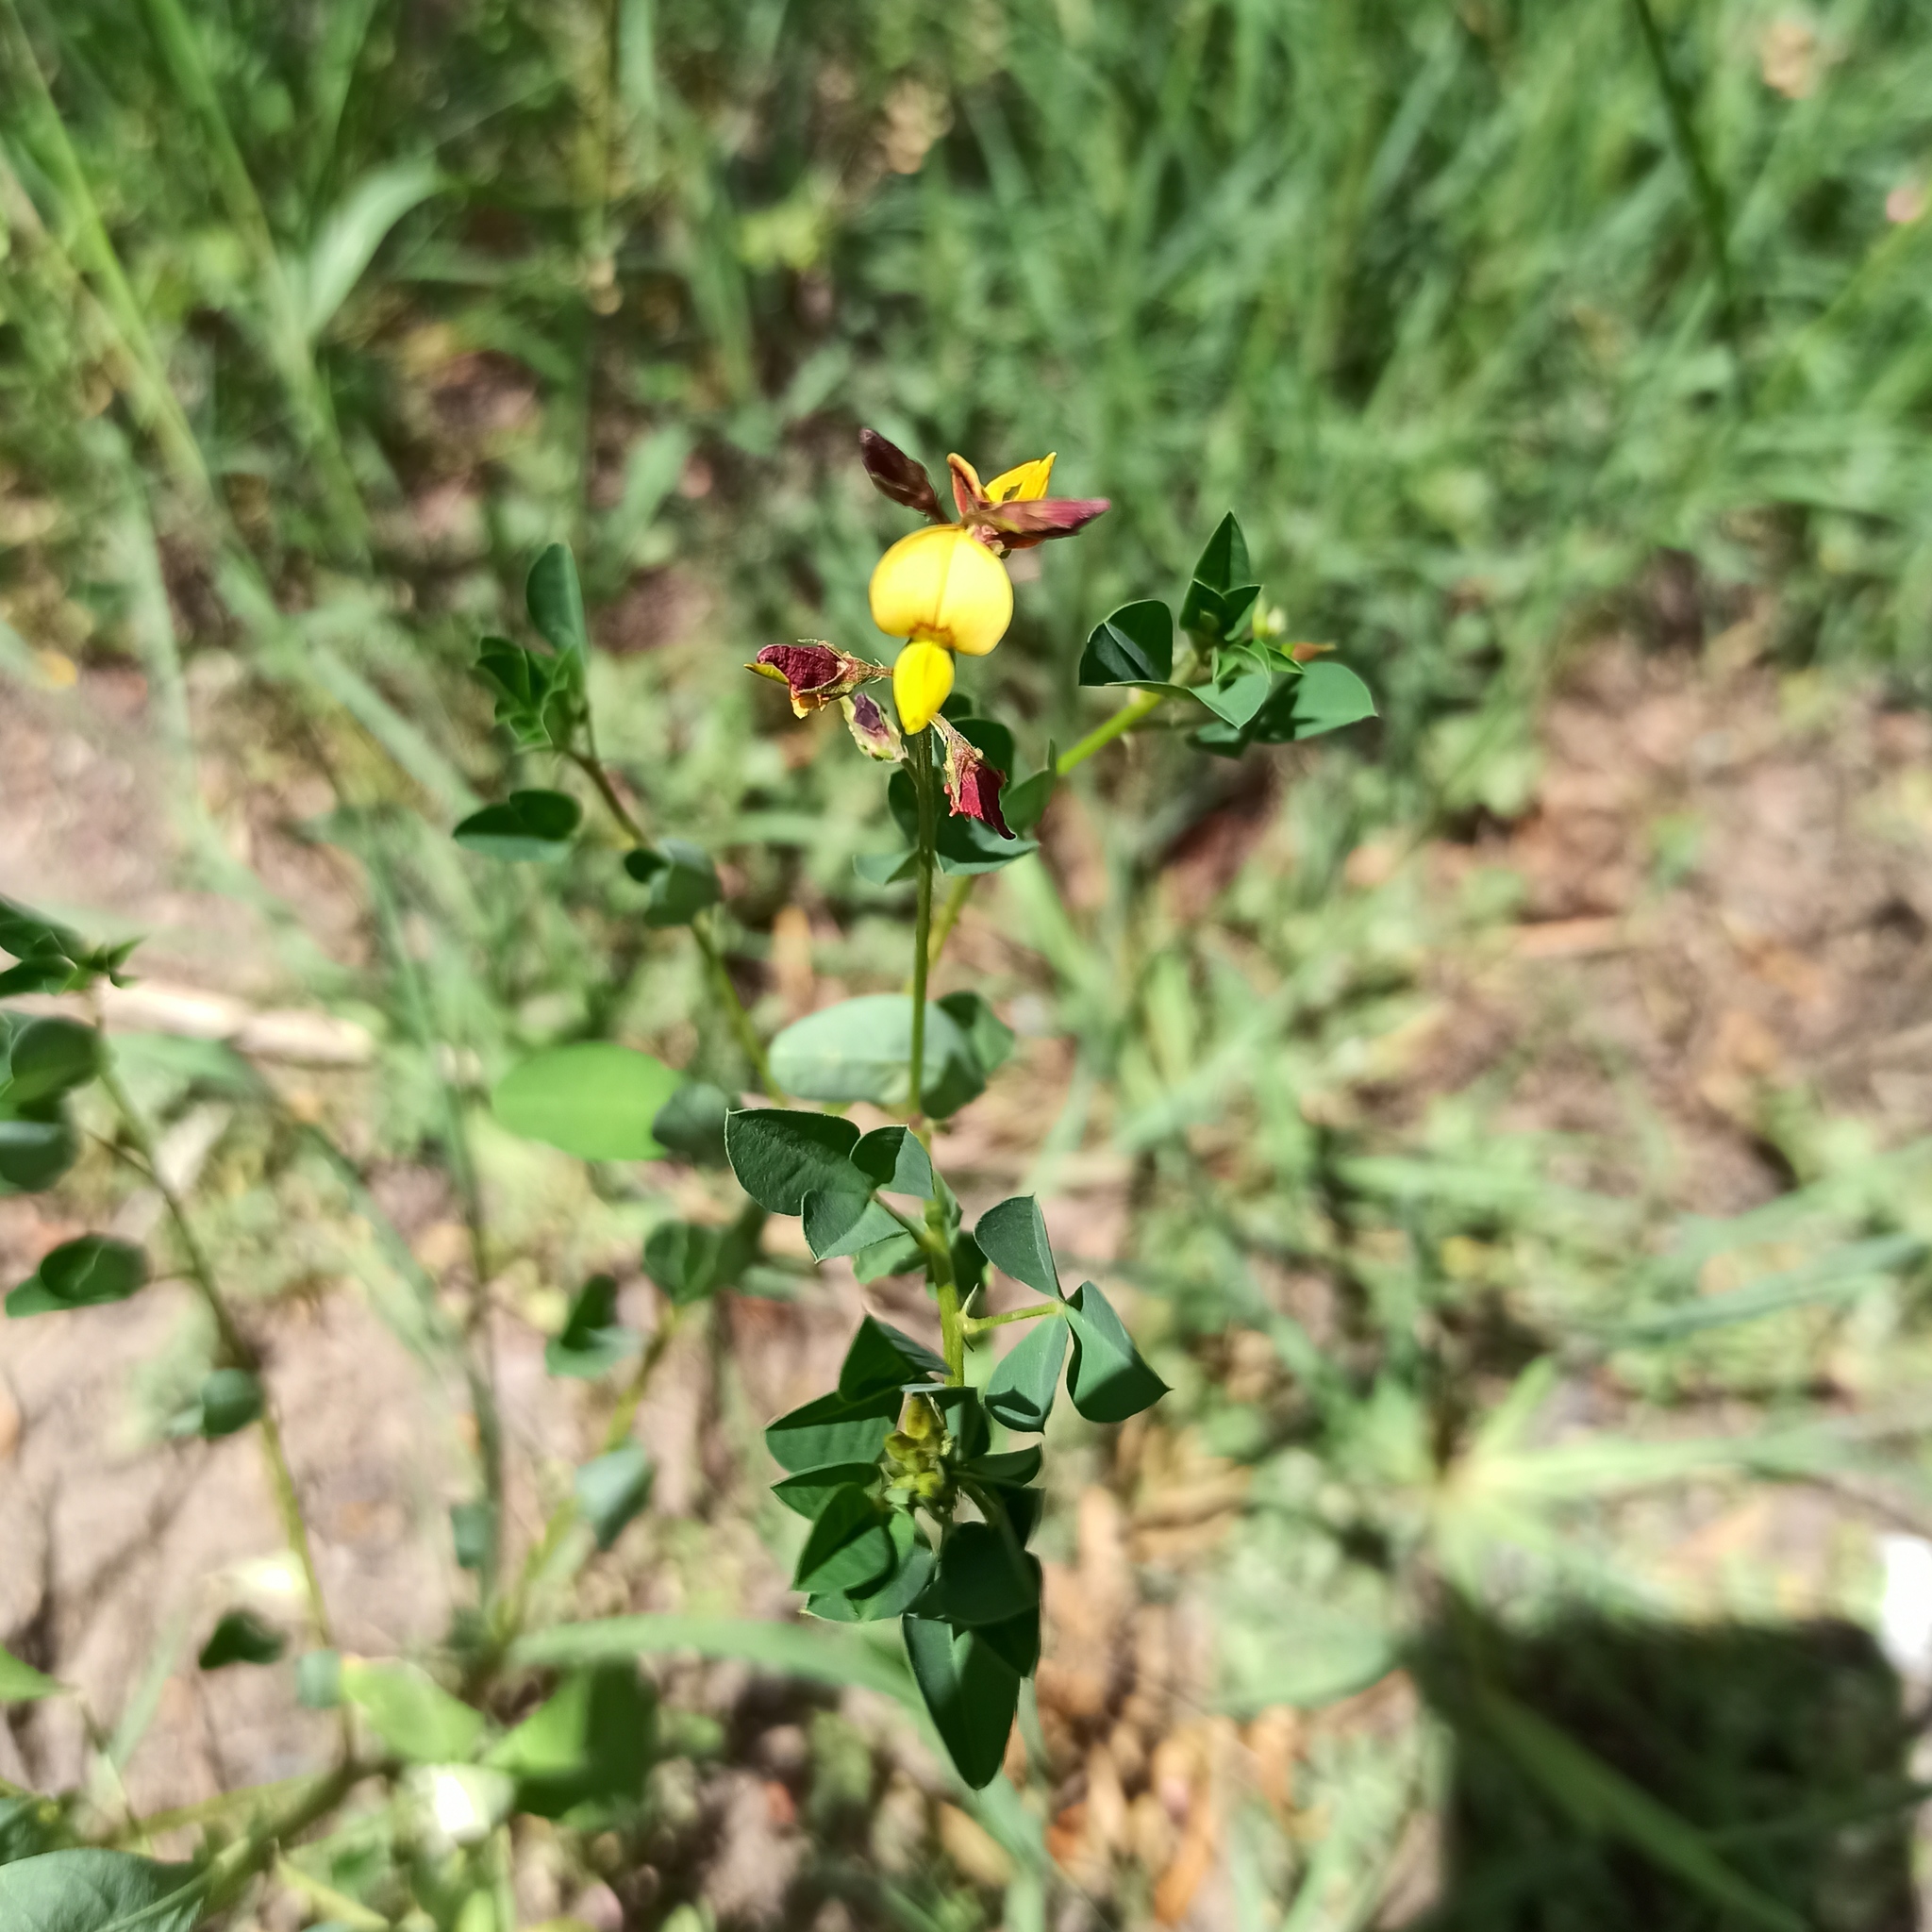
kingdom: Plantae
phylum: Tracheophyta
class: Magnoliopsida
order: Fabales
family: Fabaceae
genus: Crotalaria
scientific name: Crotalaria pumila
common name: Low rattlebox
